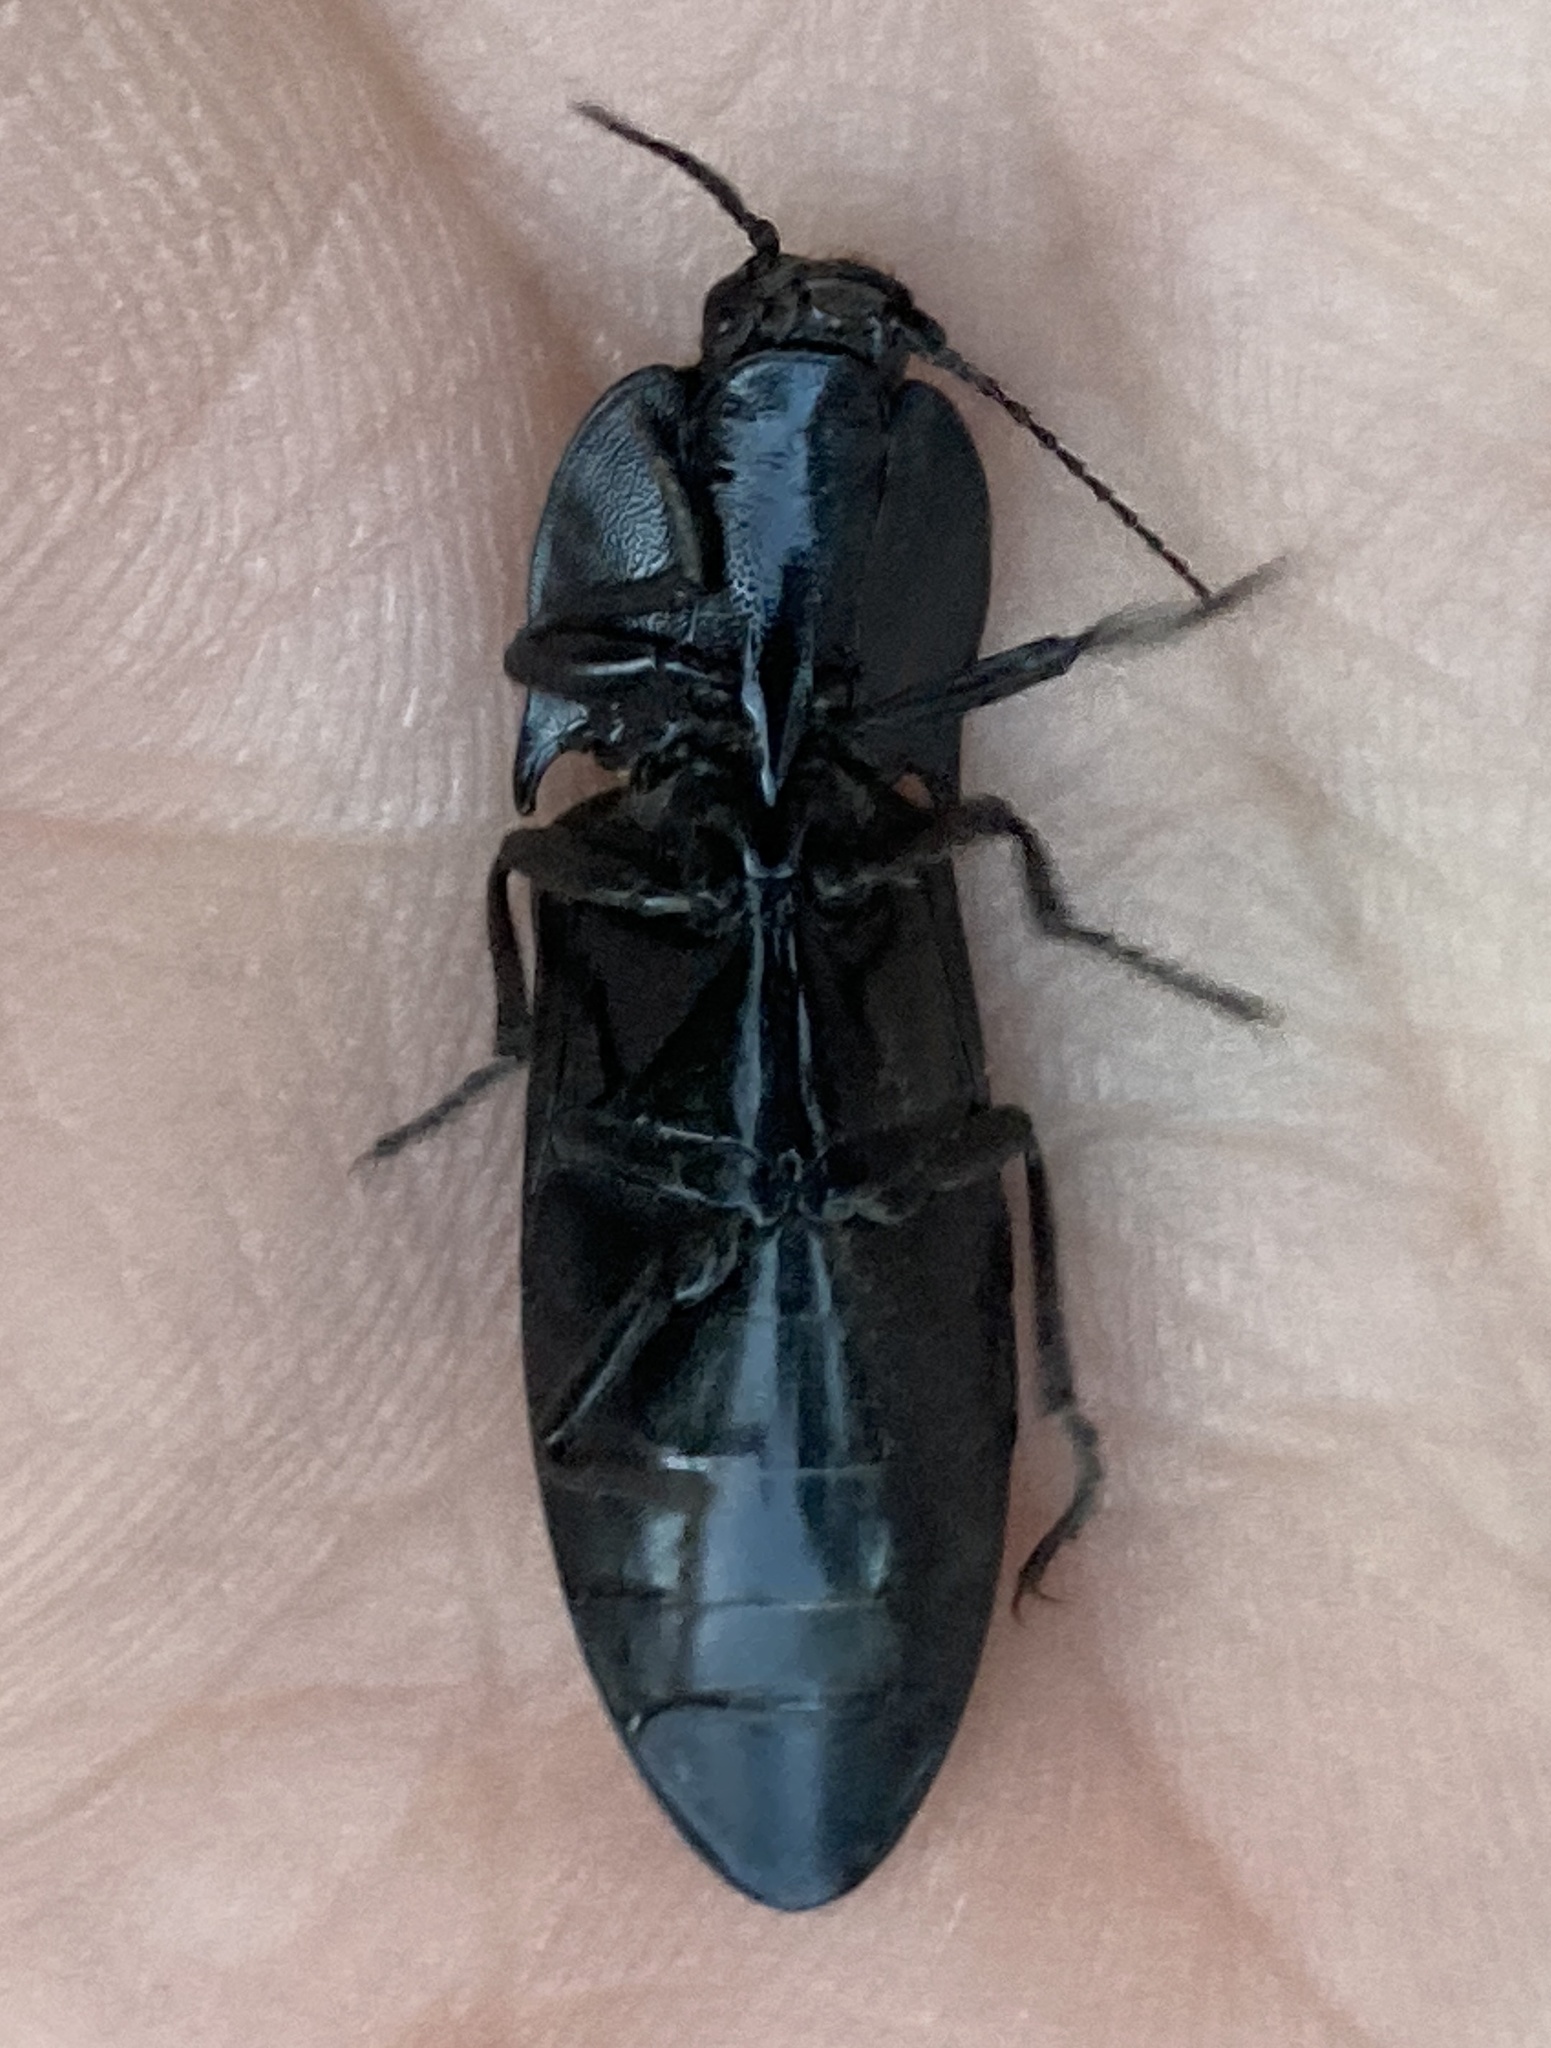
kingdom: Animalia
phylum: Arthropoda
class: Insecta
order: Coleoptera
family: Elateridae
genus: Melanactes
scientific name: Melanactes
